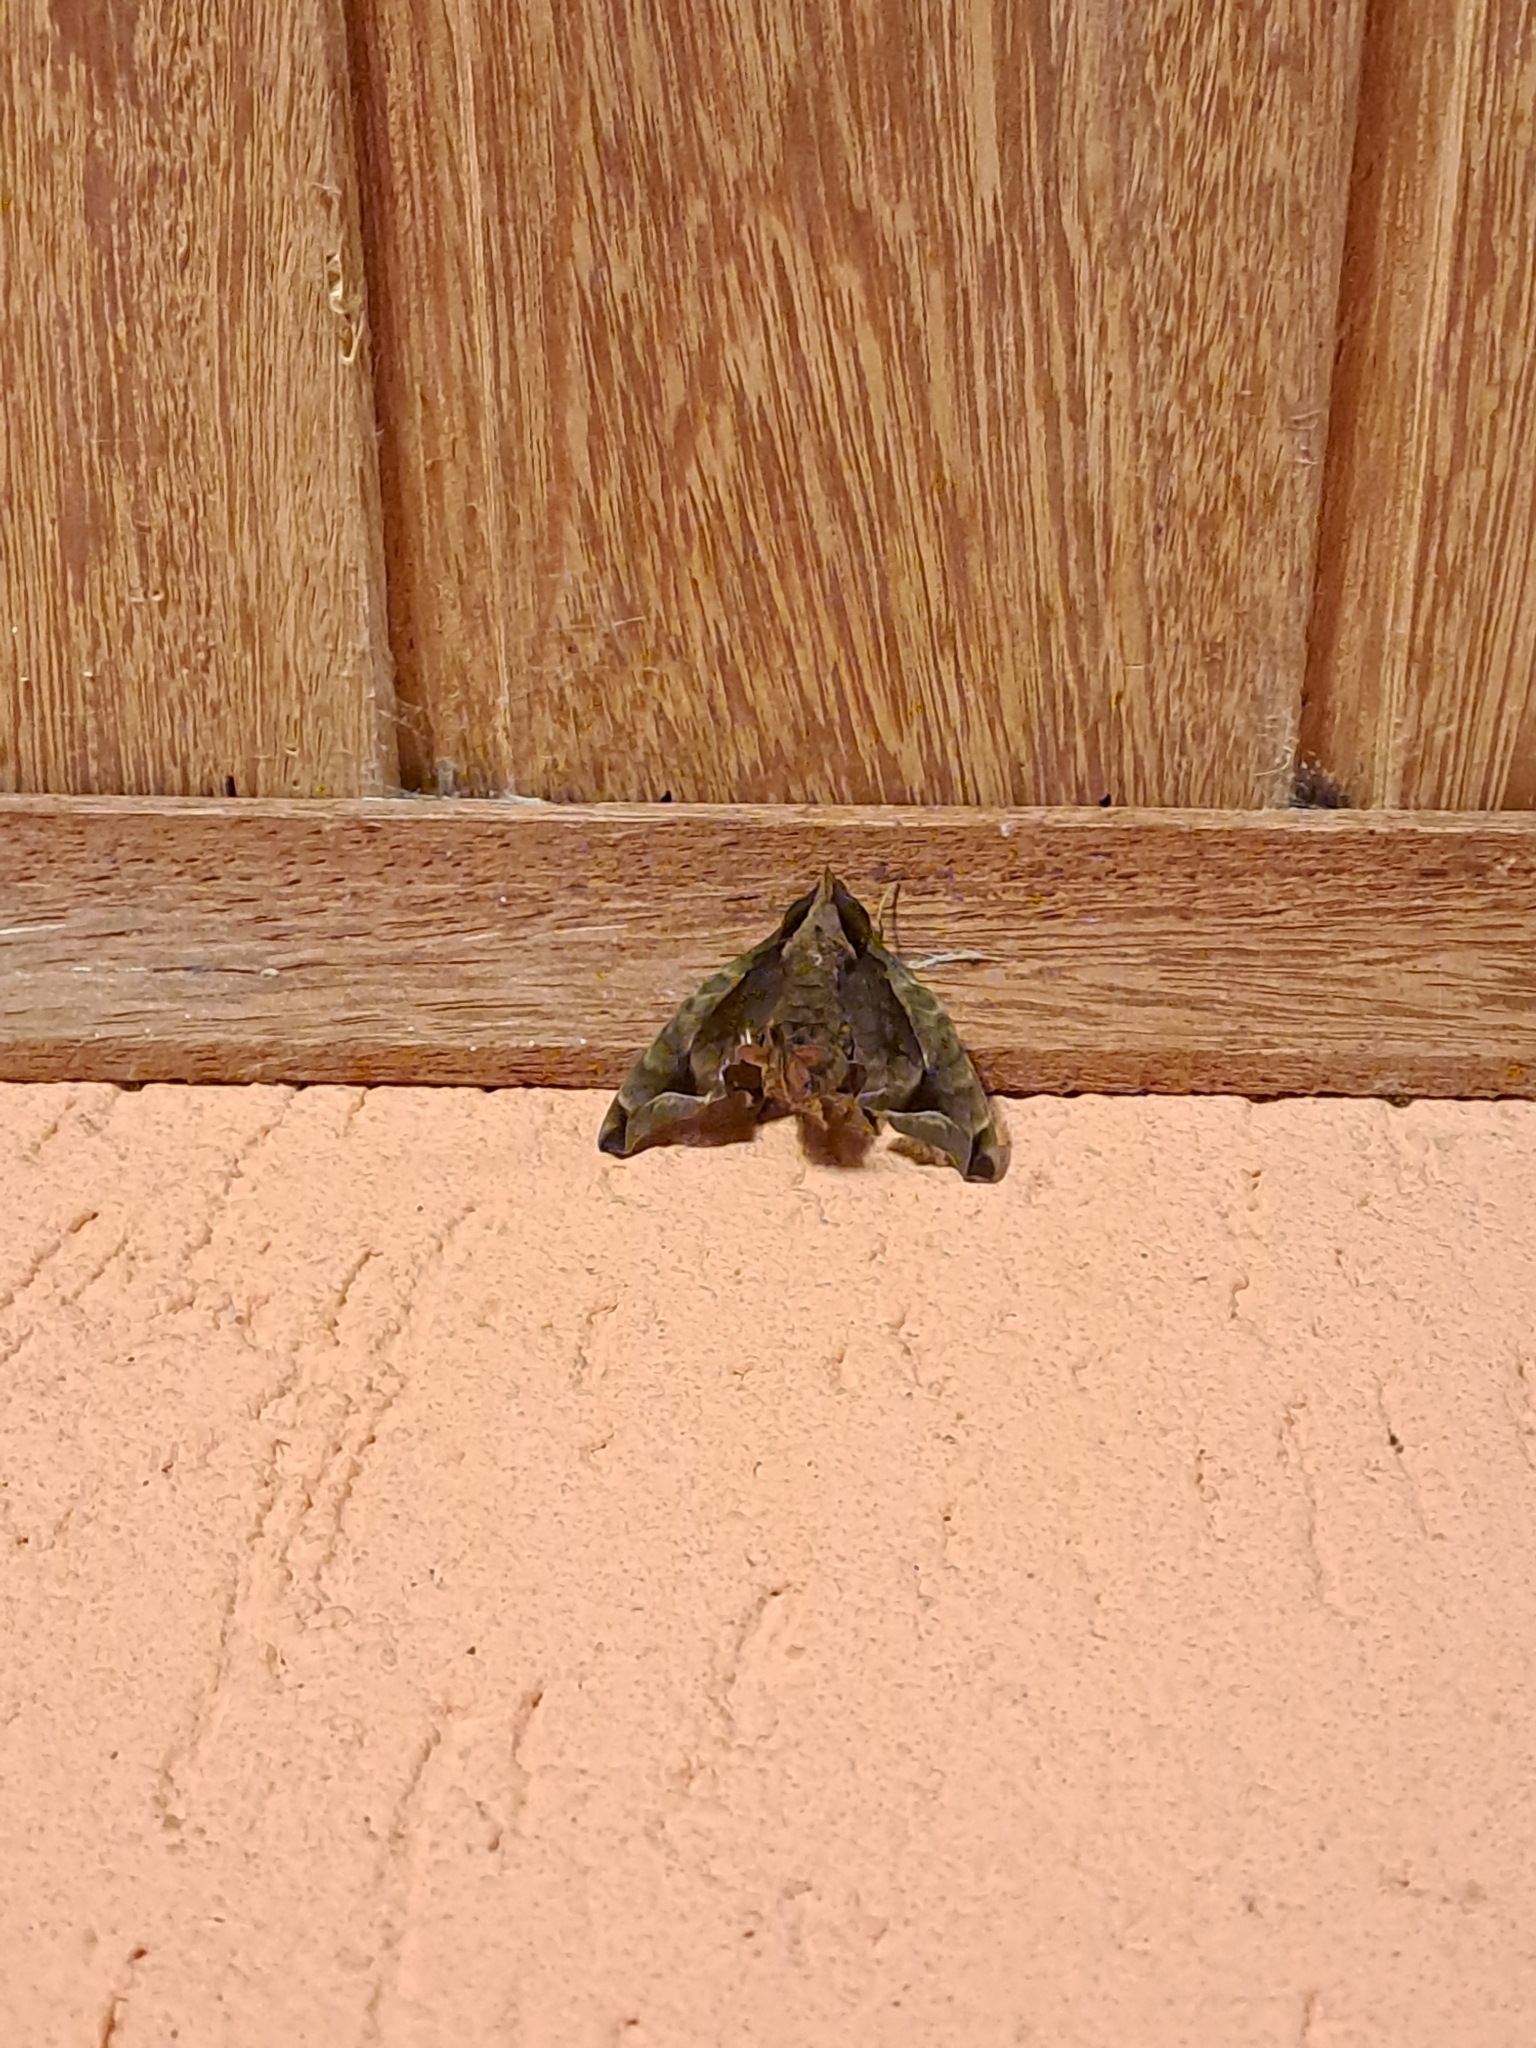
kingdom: Animalia
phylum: Arthropoda
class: Insecta
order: Lepidoptera
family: Sphingidae
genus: Enyo
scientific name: Enyo gorgon
